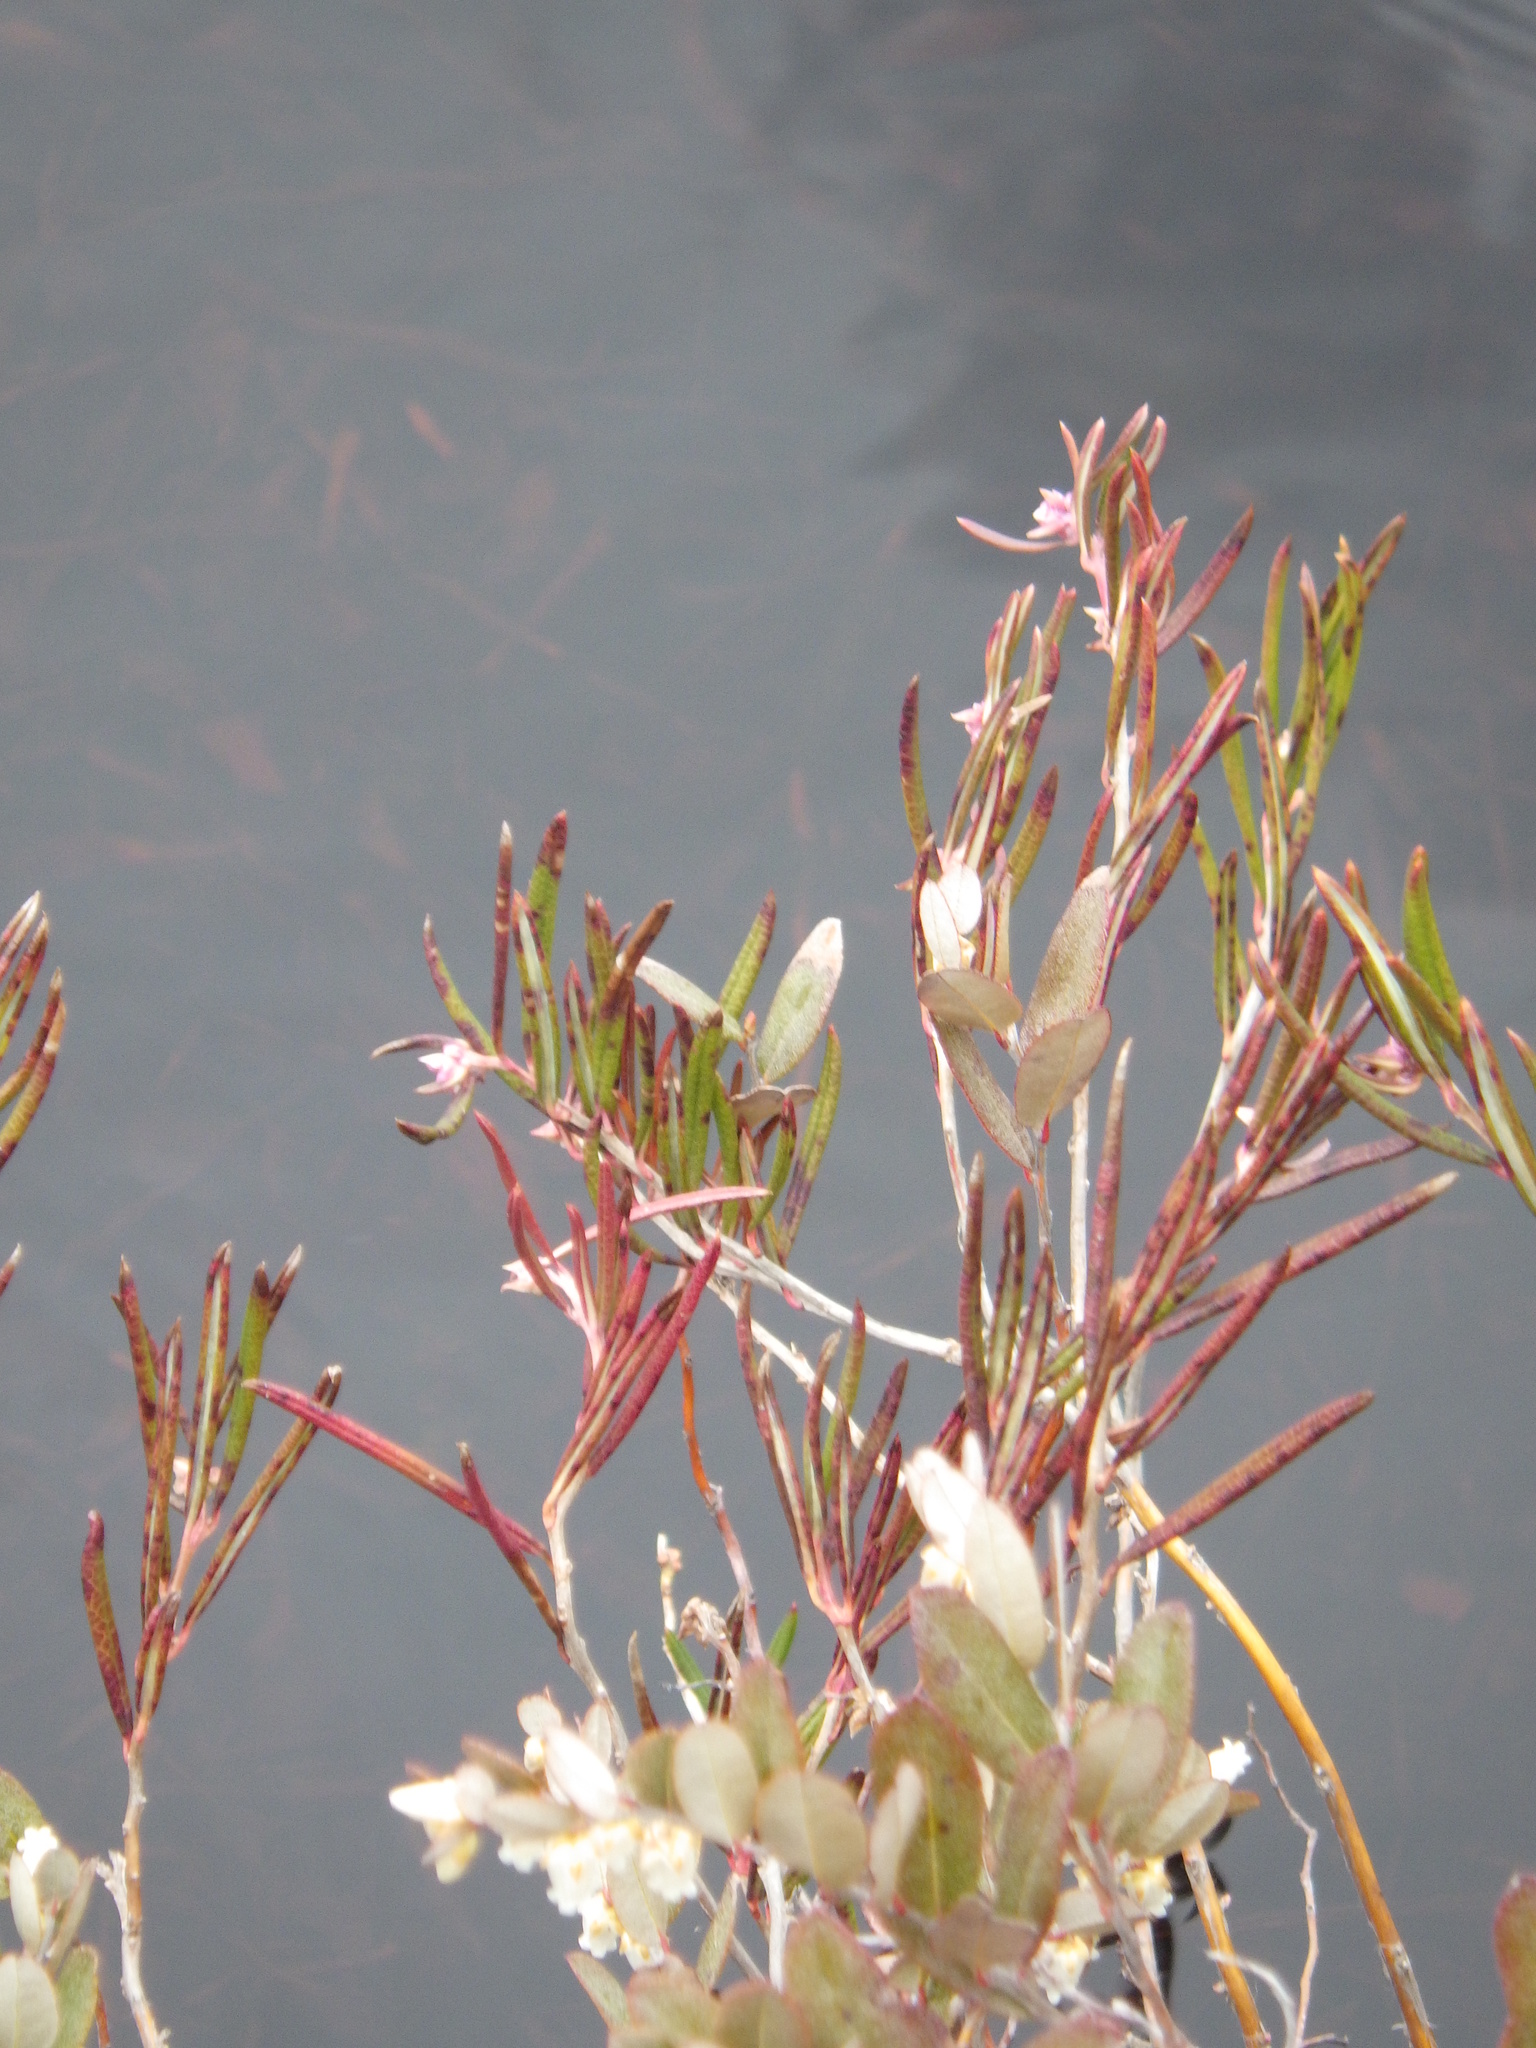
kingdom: Plantae
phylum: Tracheophyta
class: Magnoliopsida
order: Ericales
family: Ericaceae
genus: Andromeda
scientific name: Andromeda polifolia
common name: Bog-rosemary
